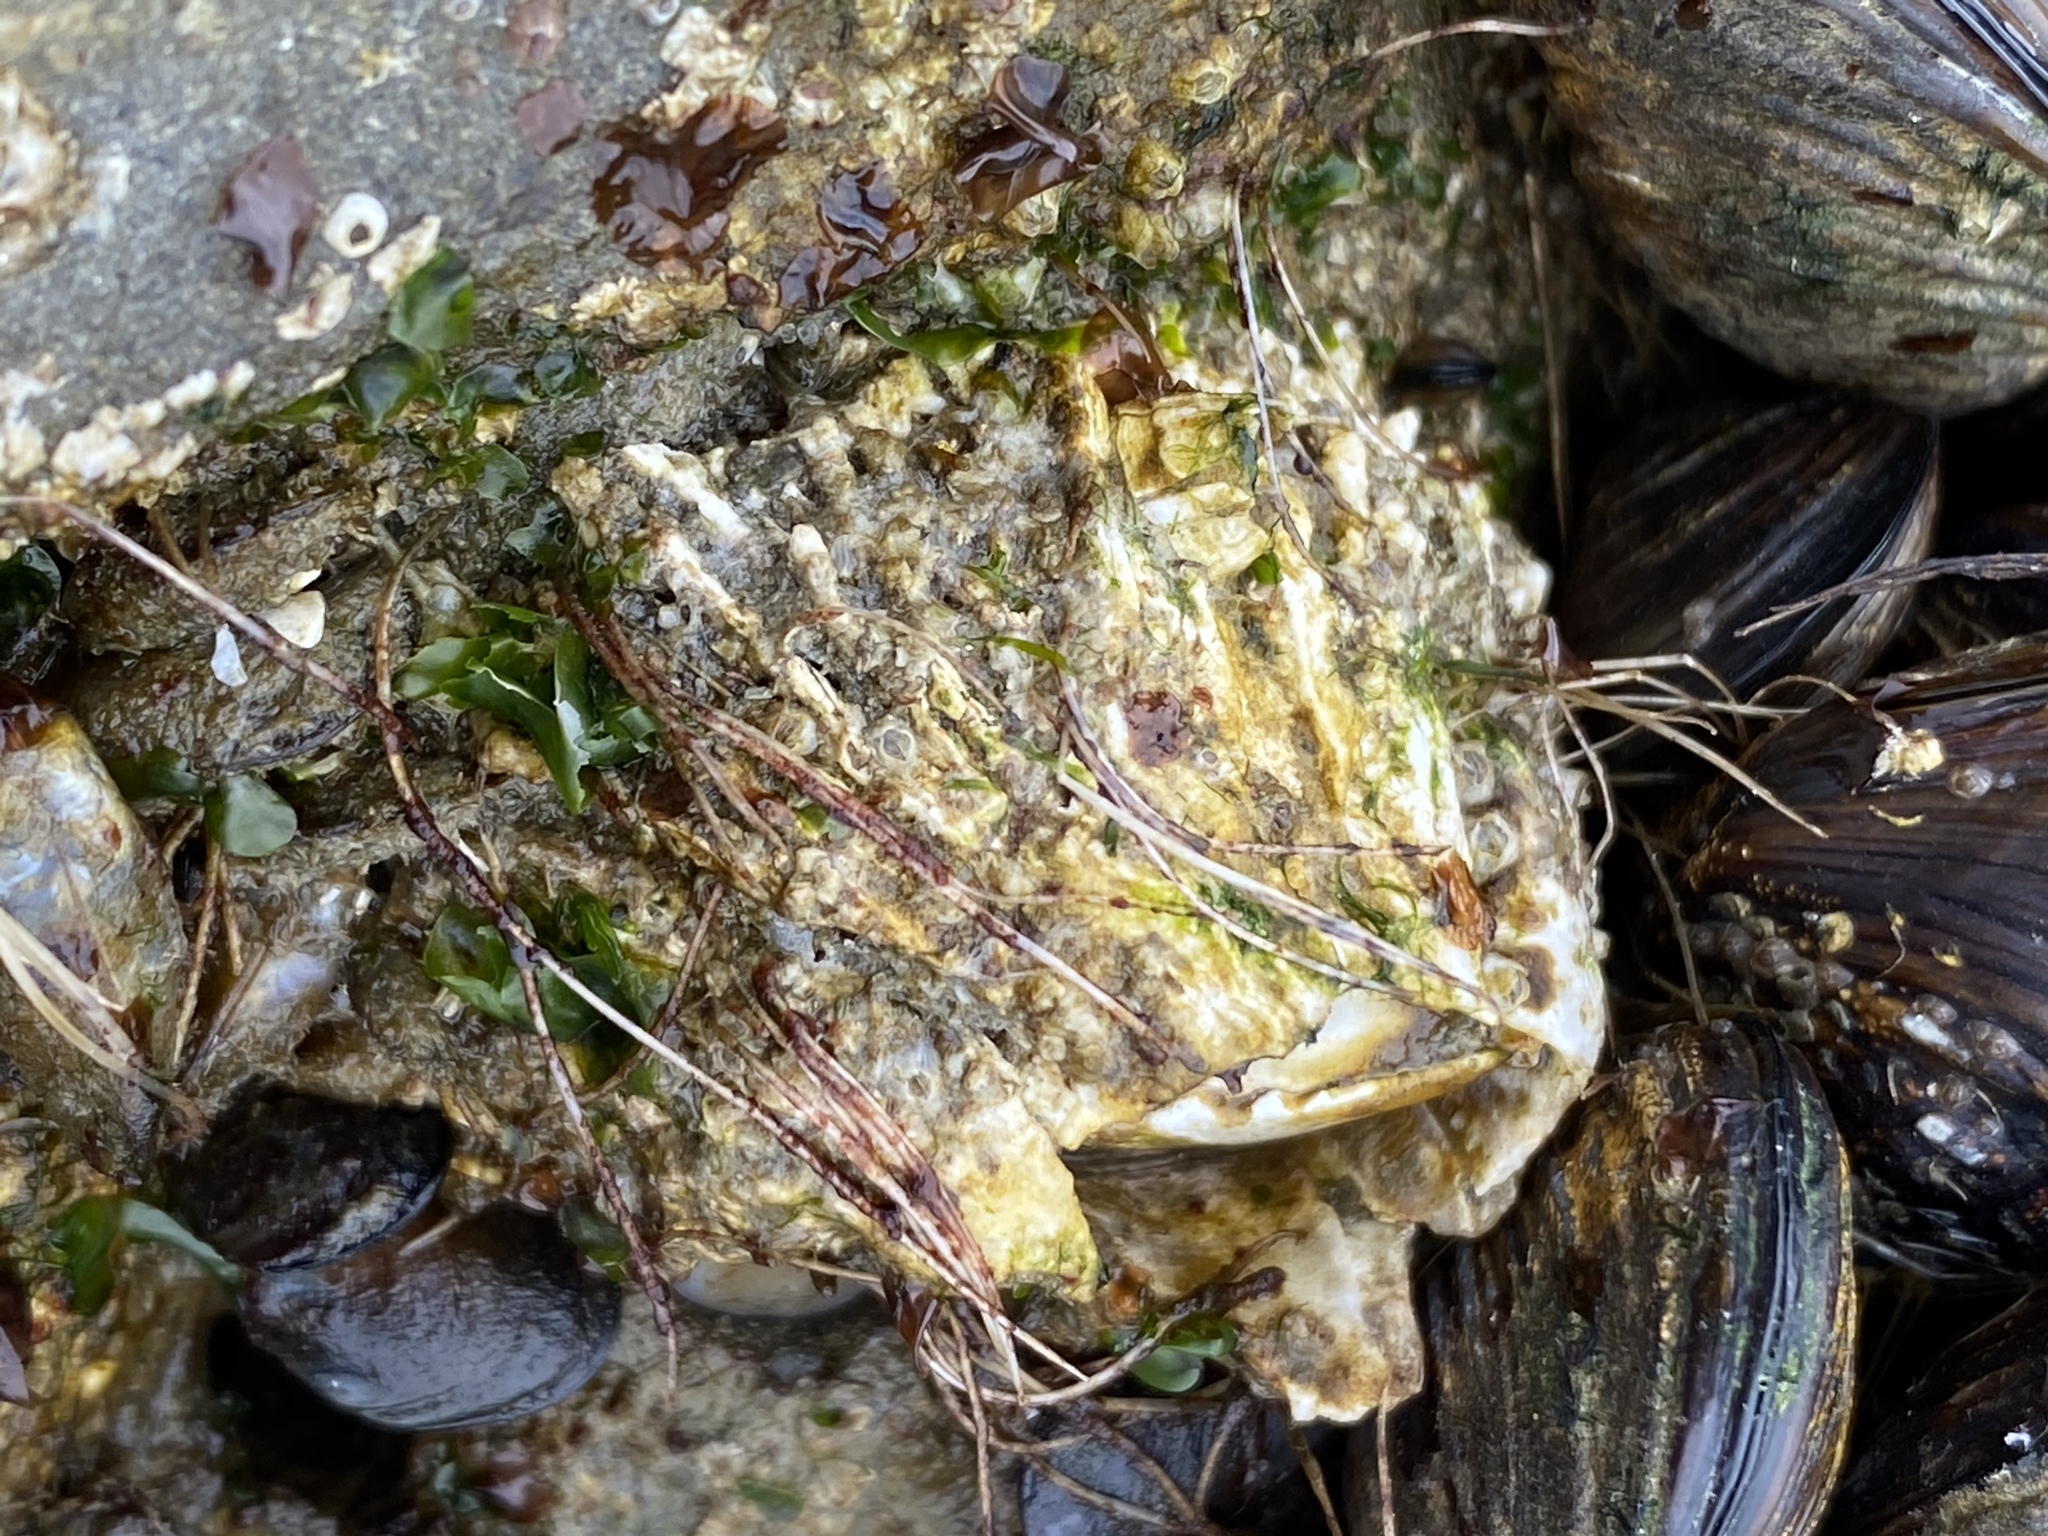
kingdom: Animalia
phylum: Arthropoda
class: Maxillopoda
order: Sessilia
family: Archaeobalanidae
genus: Semibalanus
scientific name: Semibalanus cariosus
